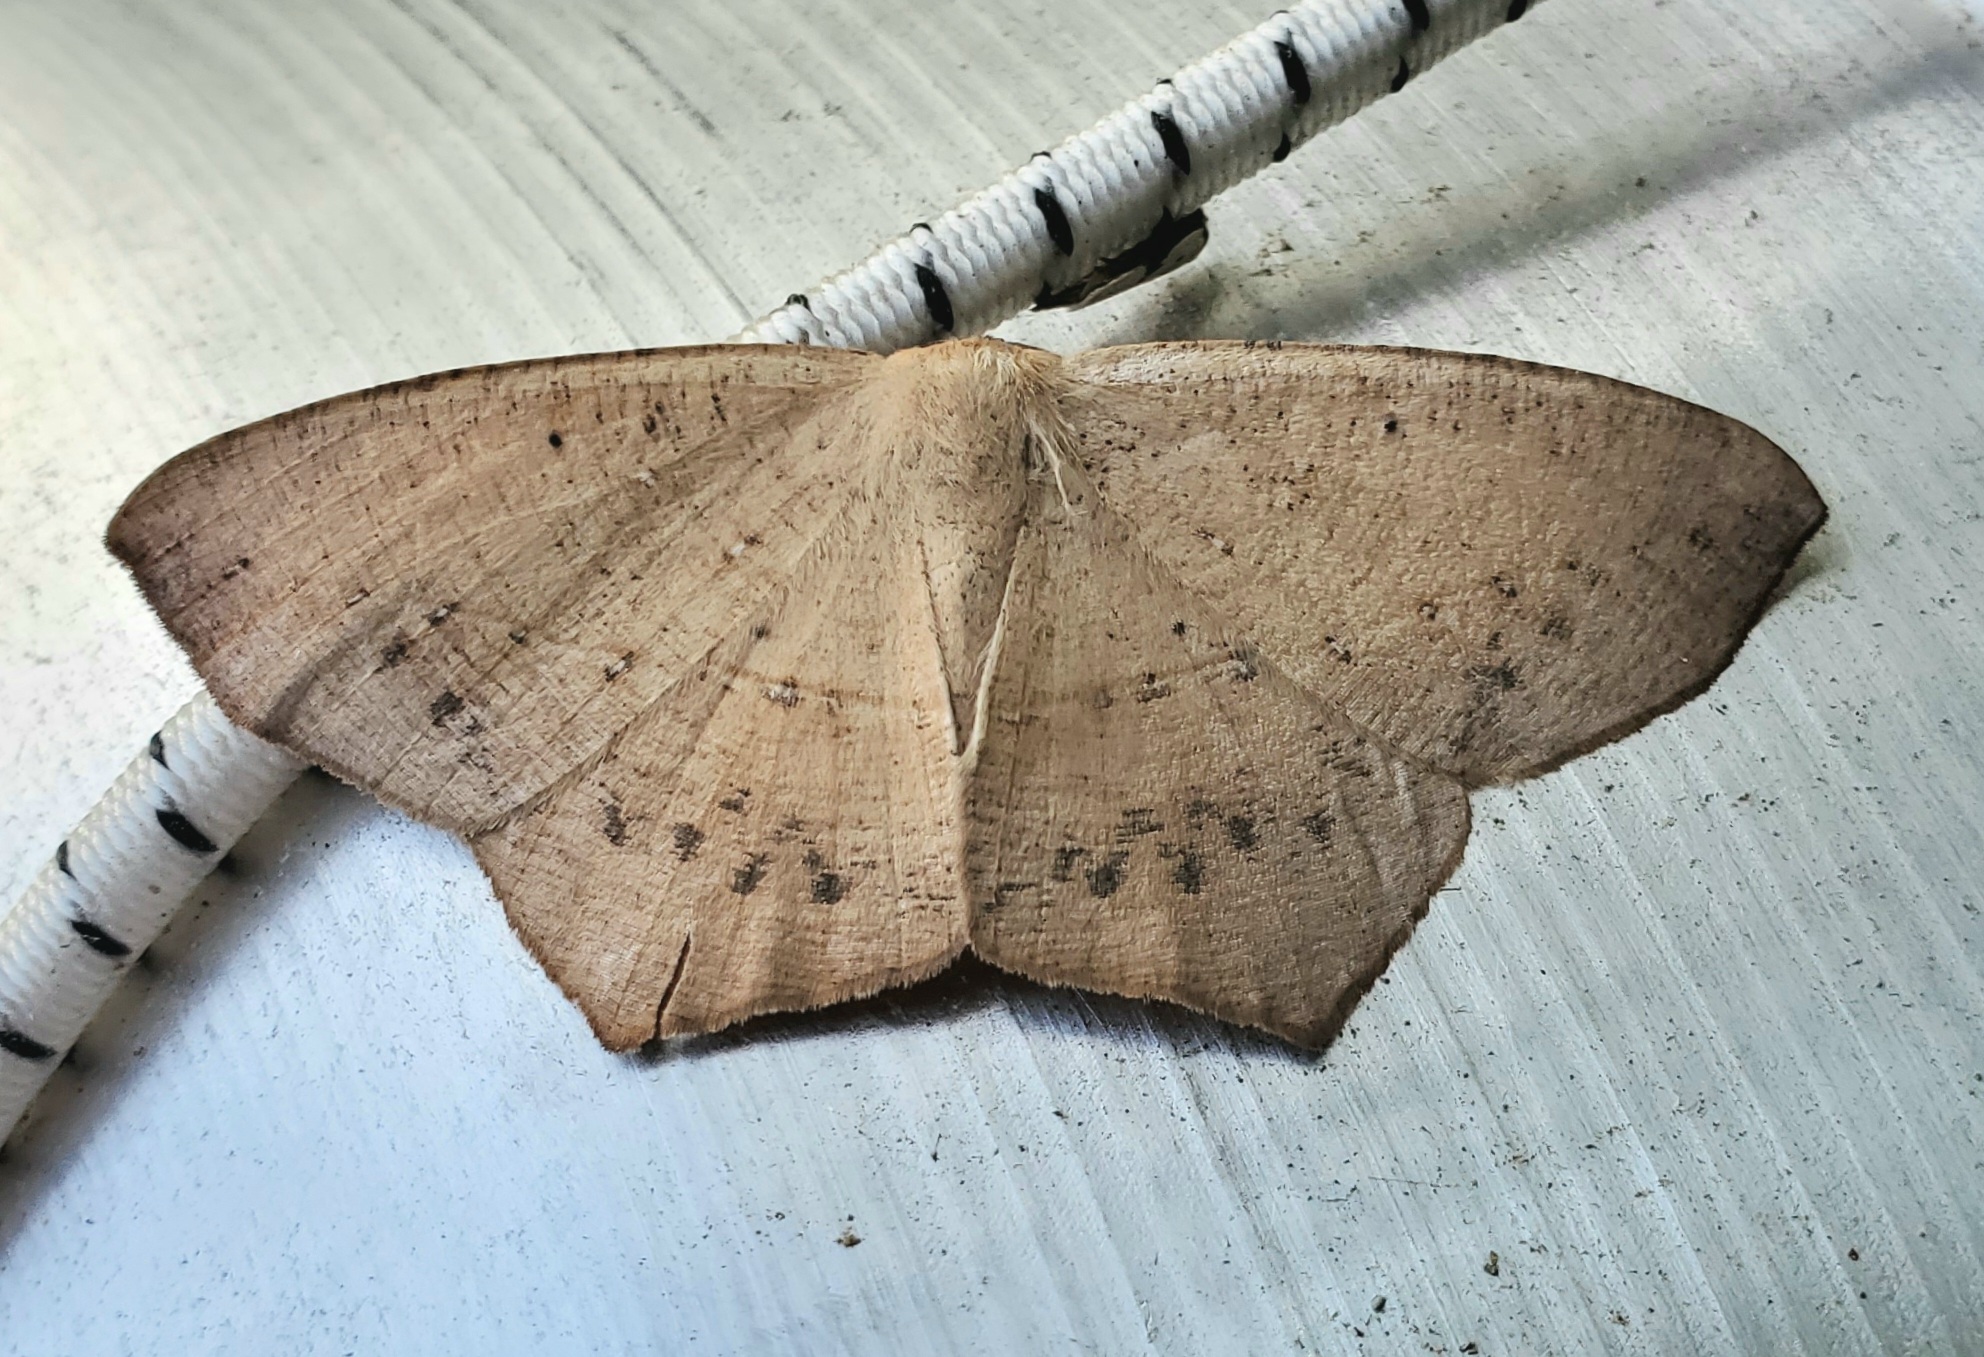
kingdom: Animalia
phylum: Arthropoda
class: Insecta
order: Lepidoptera
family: Geometridae
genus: Prochoerodes
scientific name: Prochoerodes lineola
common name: Large maple spanworm
